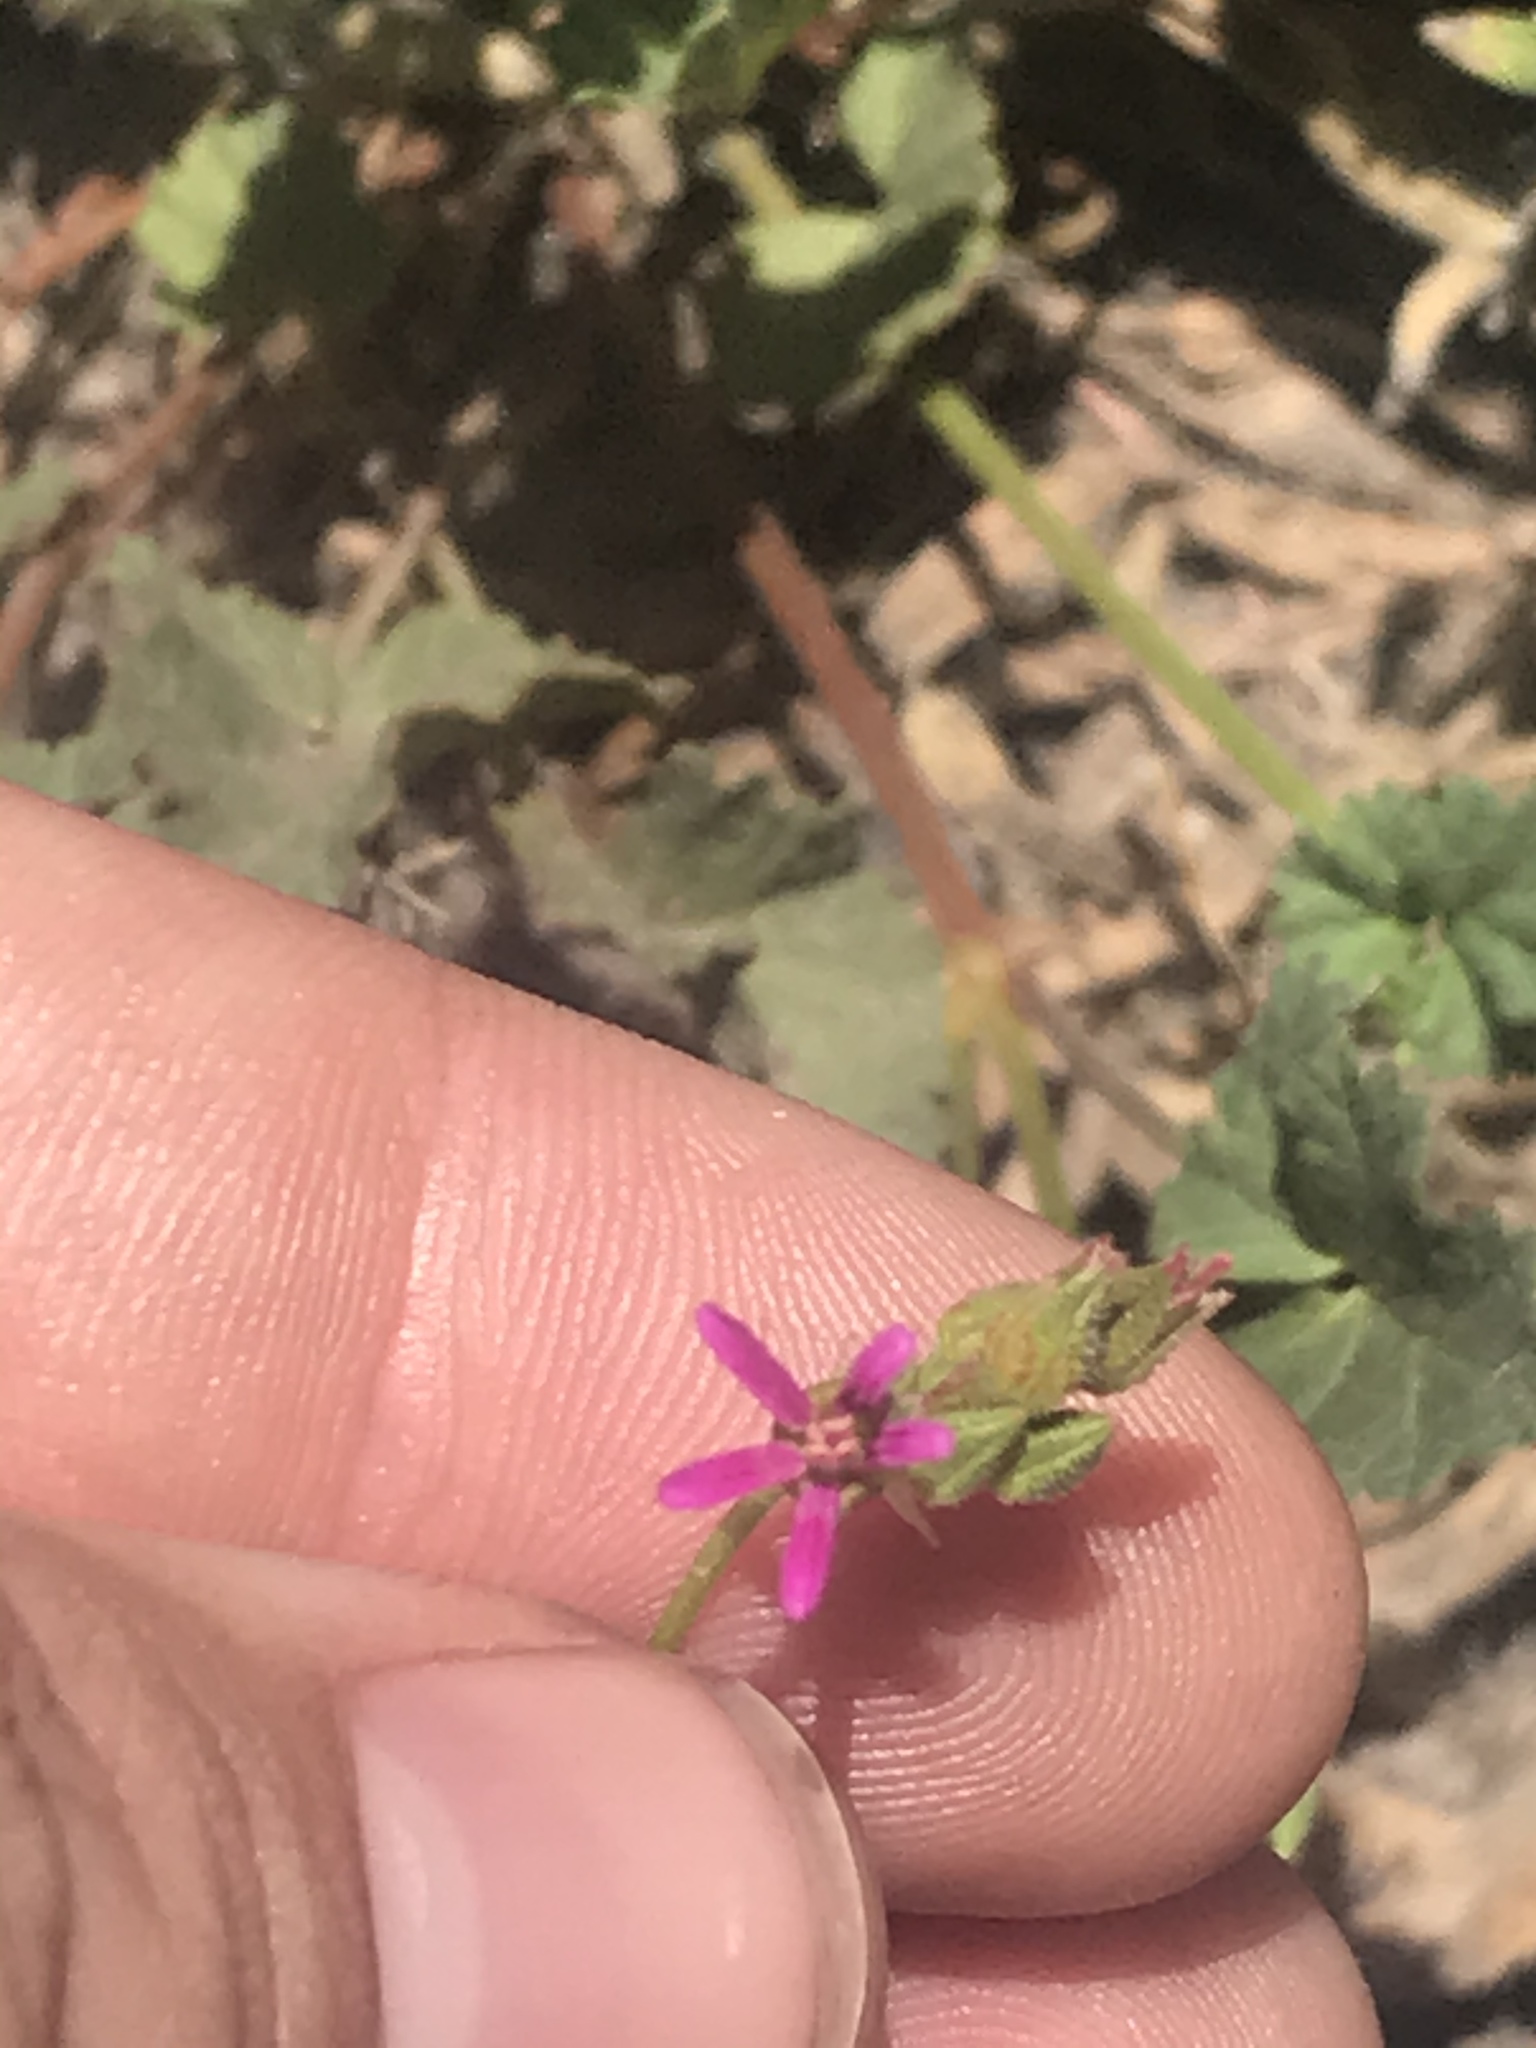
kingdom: Plantae
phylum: Tracheophyta
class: Magnoliopsida
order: Geraniales
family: Geraniaceae
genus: Erodium
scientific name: Erodium malacoides
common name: Soft stork's-bill
